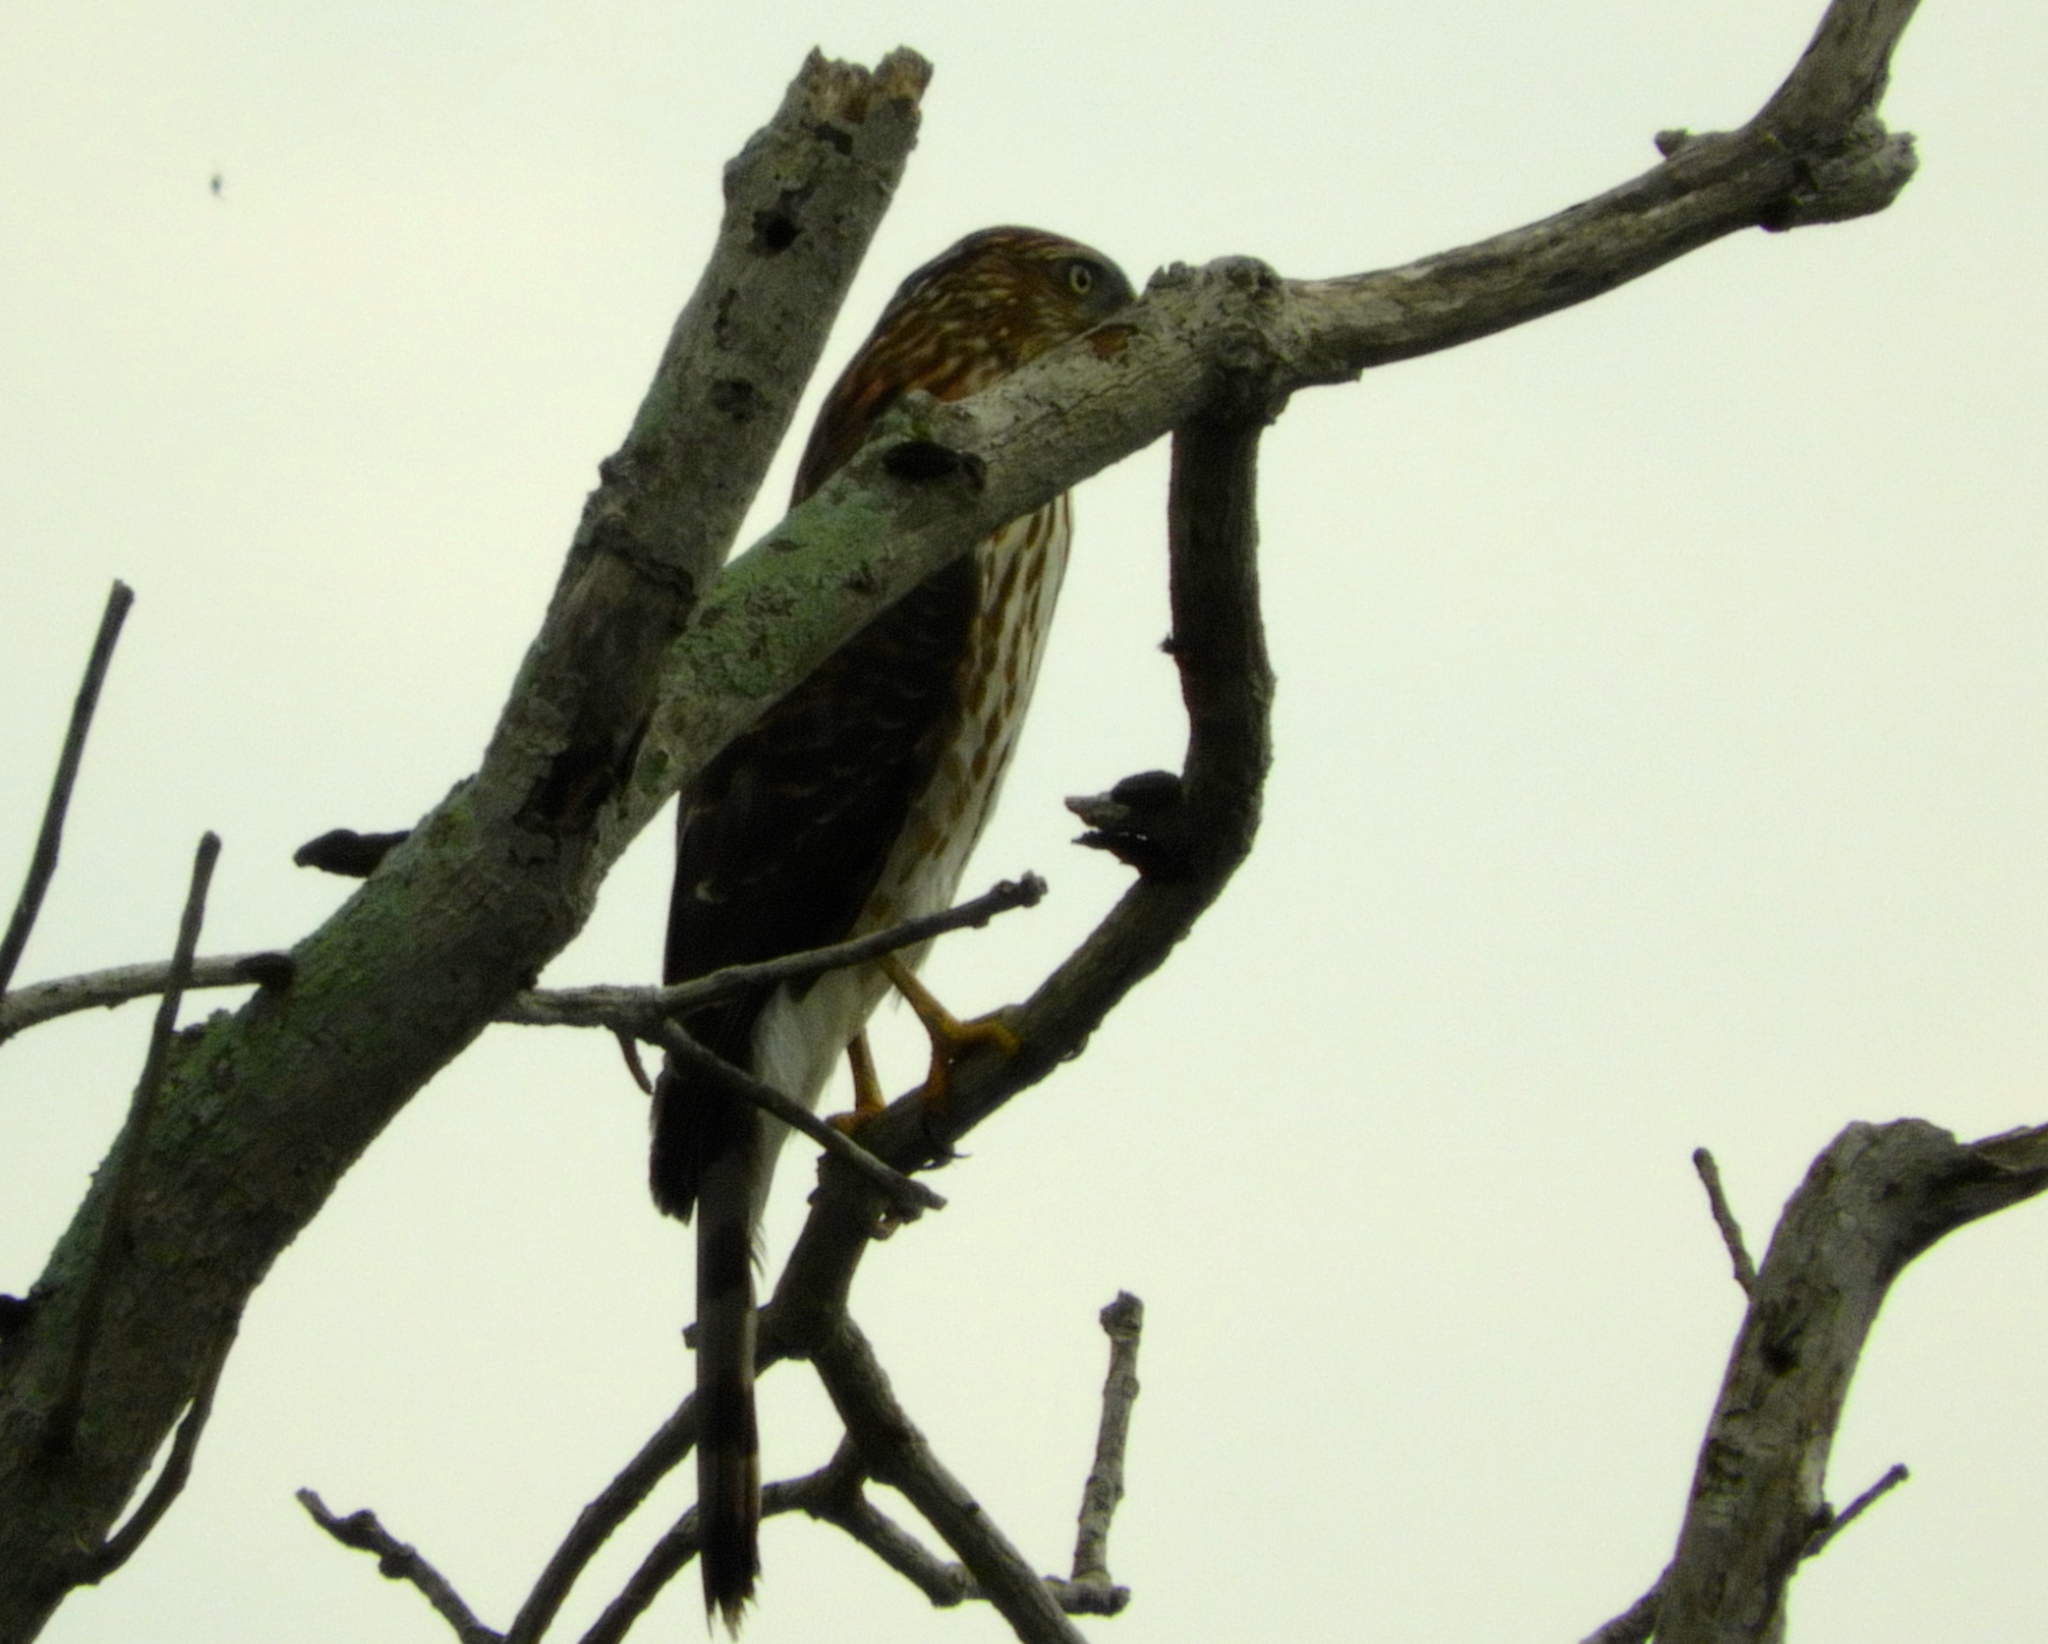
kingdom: Animalia
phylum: Chordata
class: Aves
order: Accipitriformes
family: Accipitridae
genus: Accipiter
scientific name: Accipiter cooperii
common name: Cooper's hawk
